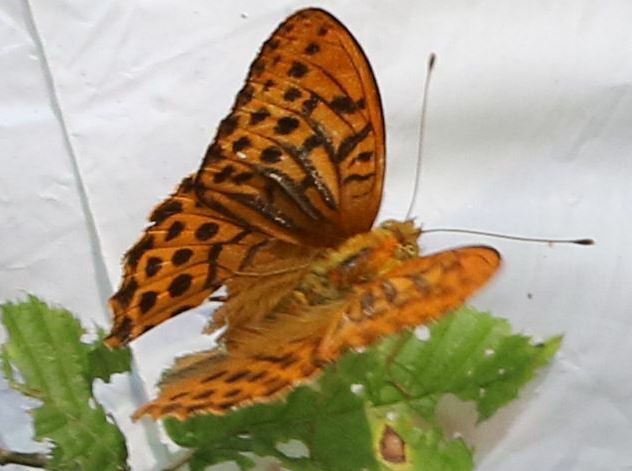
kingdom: Animalia
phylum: Arthropoda
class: Insecta
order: Lepidoptera
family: Nymphalidae
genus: Argynnis
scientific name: Argynnis paphia
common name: Silver-washed fritillary
